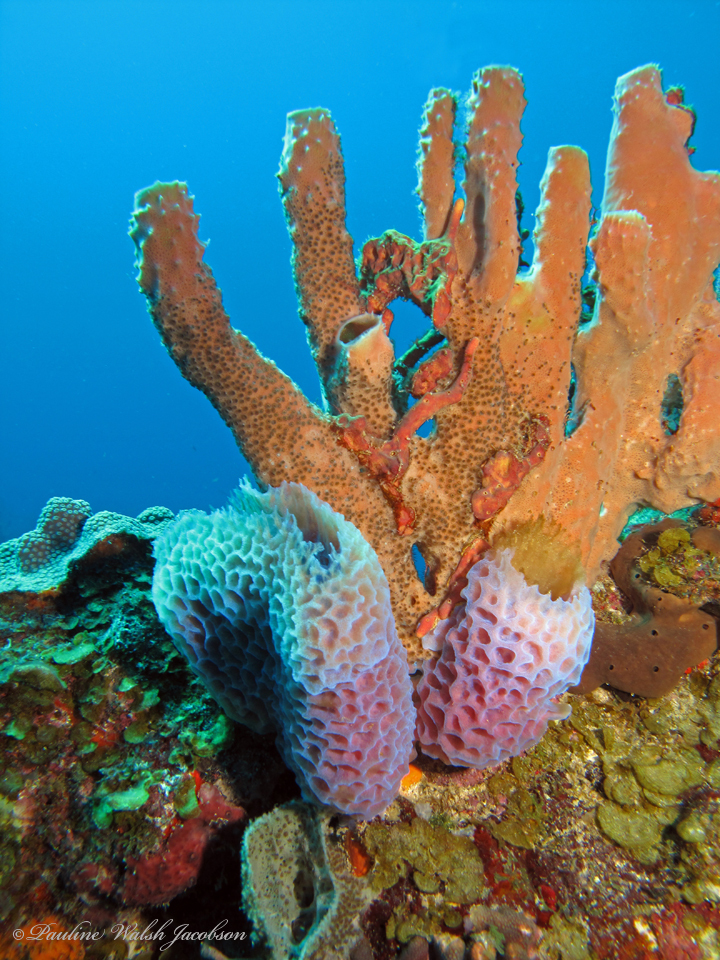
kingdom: Animalia
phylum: Porifera
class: Demospongiae
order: Haplosclerida
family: Callyspongiidae
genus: Callyspongia
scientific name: Callyspongia plicifera
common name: Azure vase sponge
